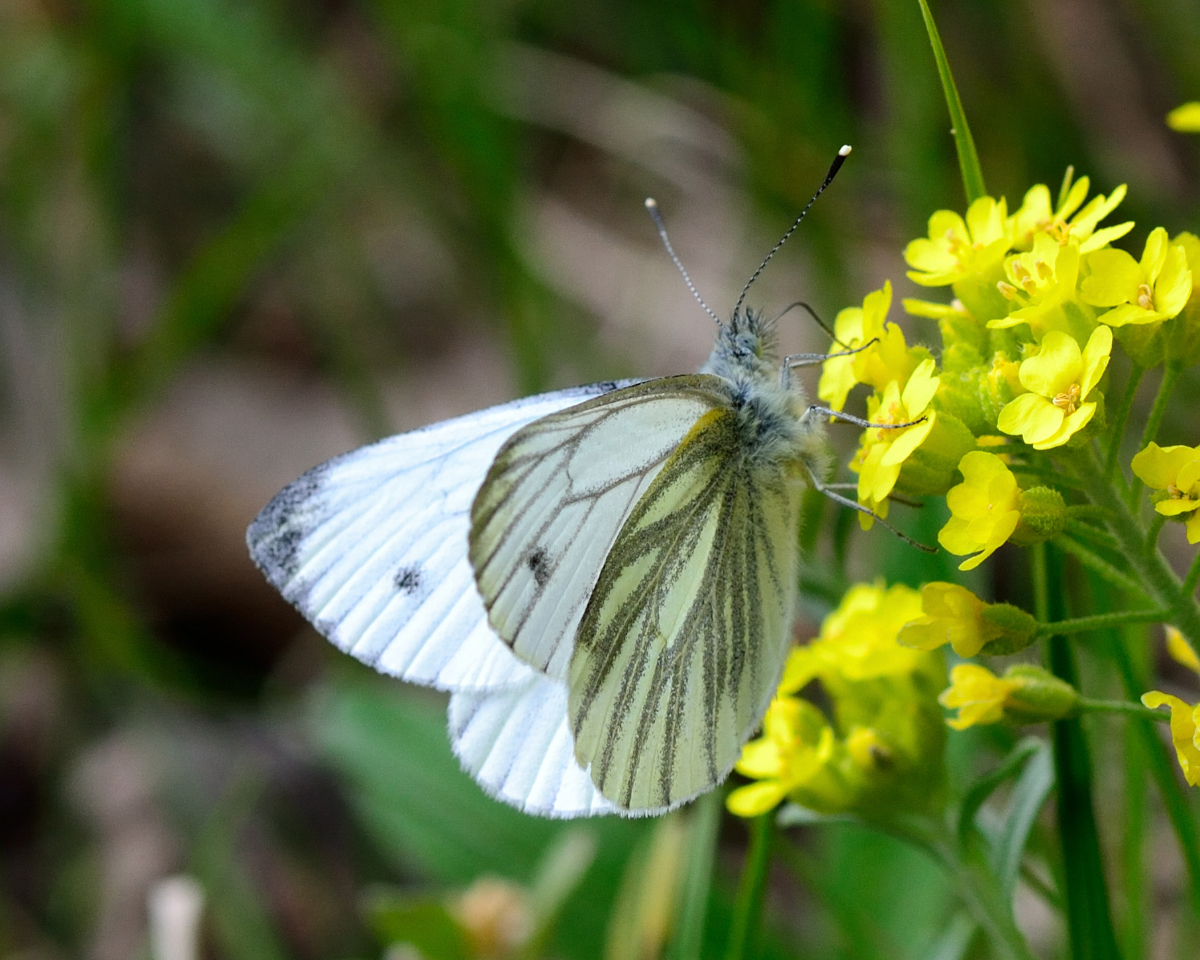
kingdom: Animalia
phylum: Arthropoda
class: Insecta
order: Lepidoptera
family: Pieridae
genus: Pieris
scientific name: Pieris napi
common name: Green-veined white
